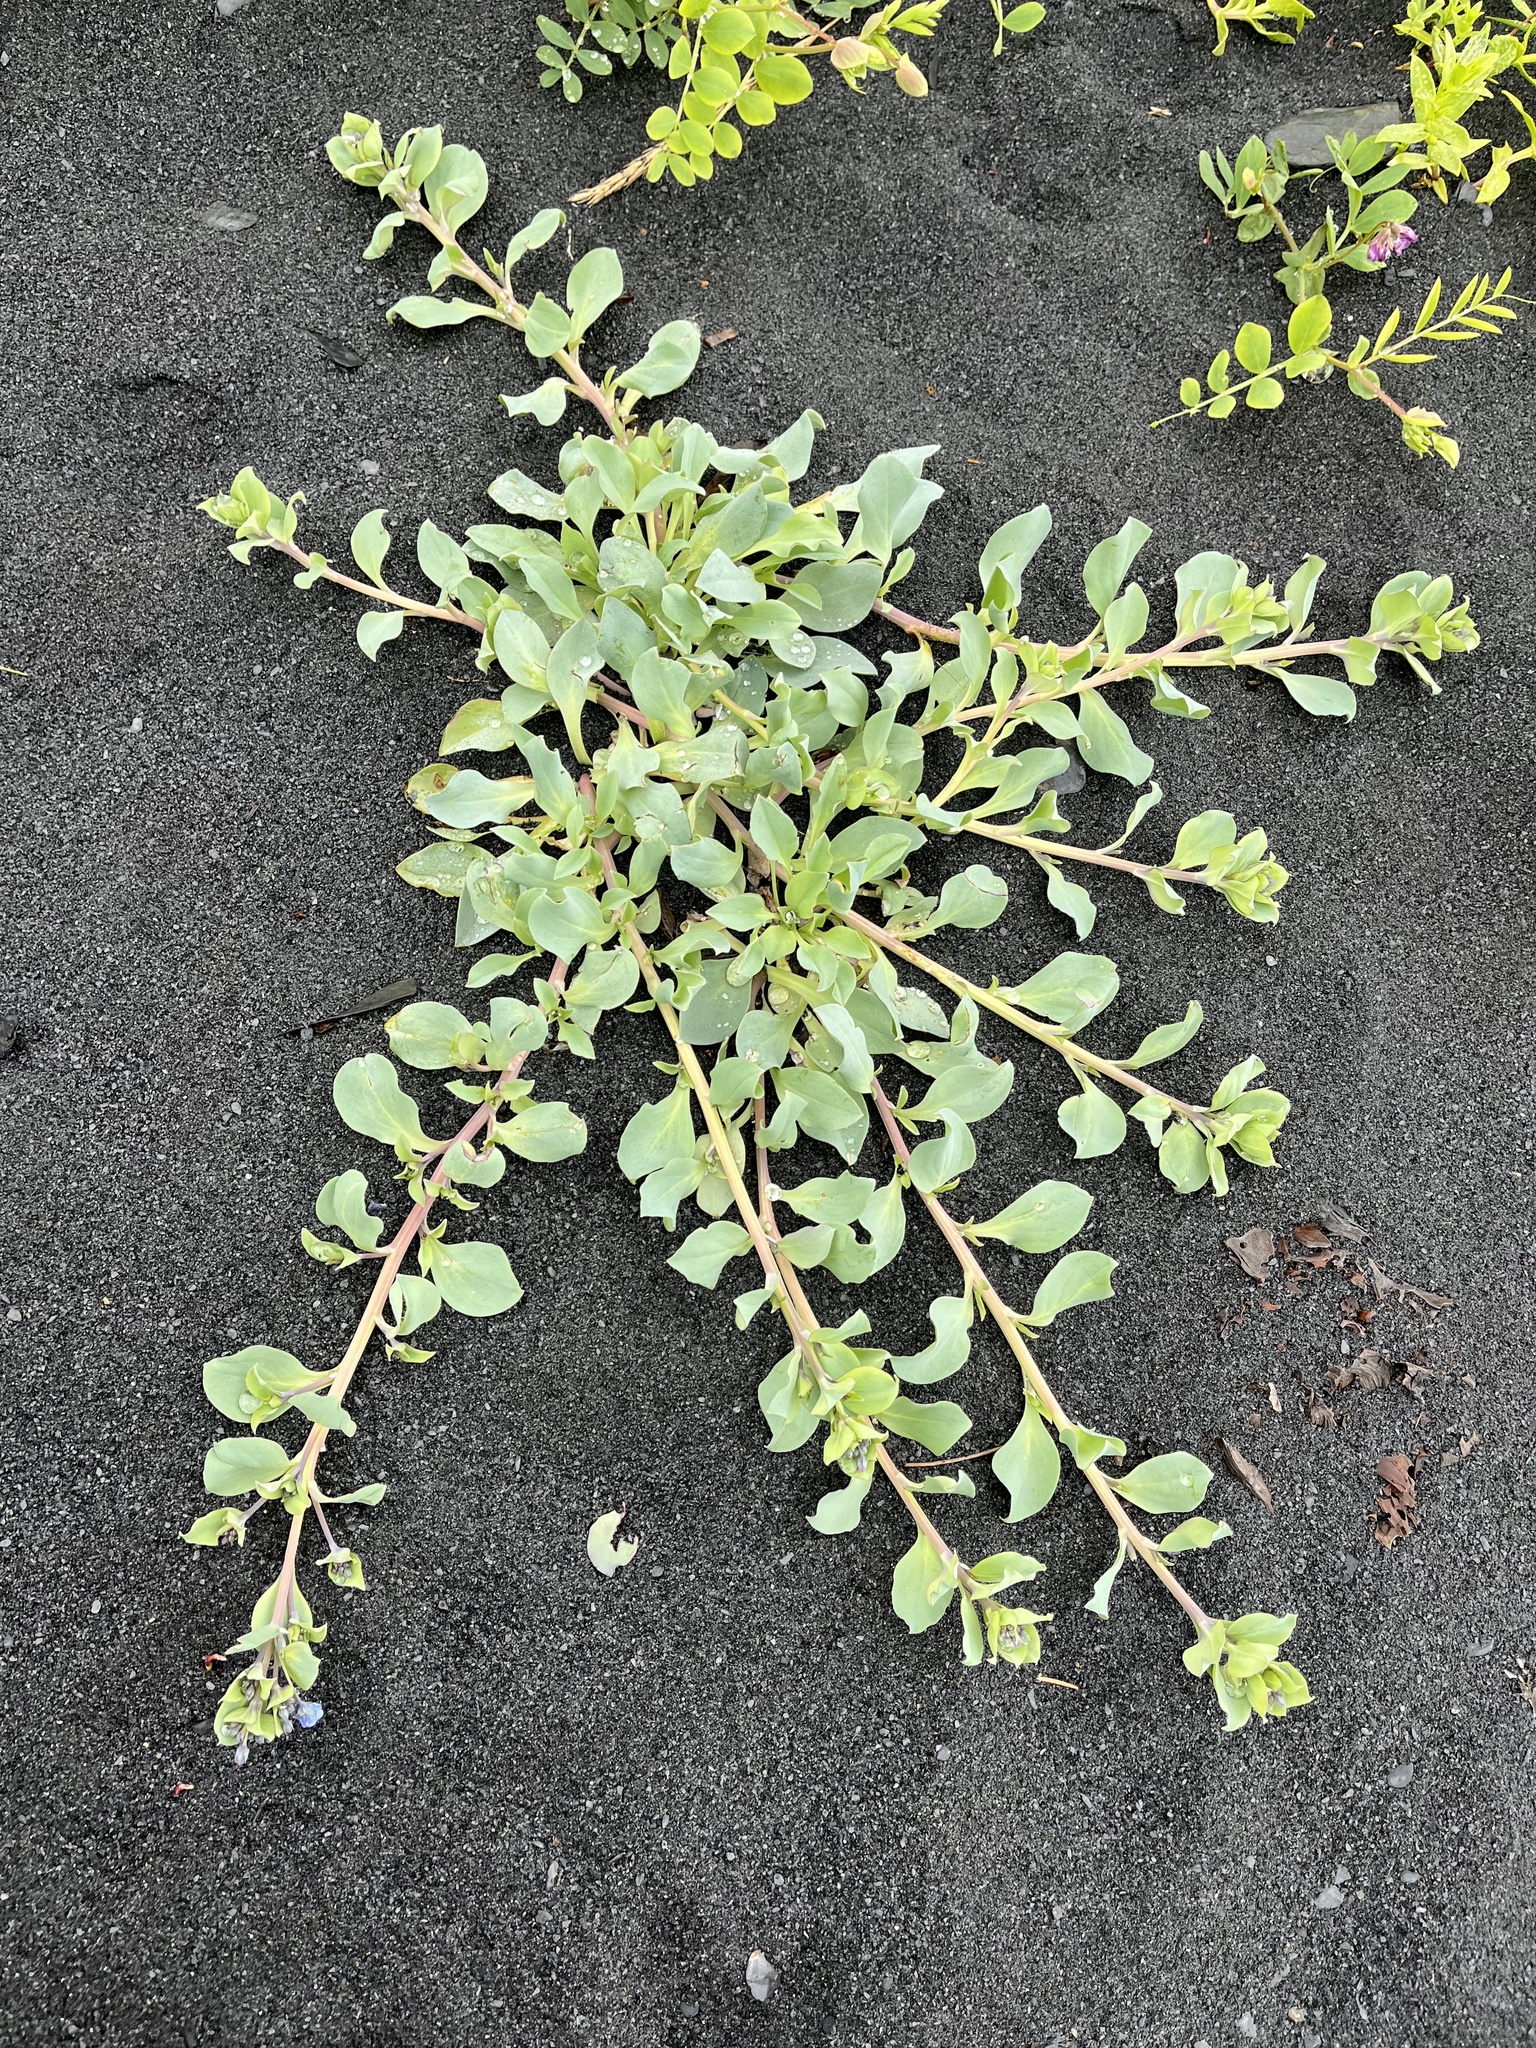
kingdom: Plantae
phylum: Tracheophyta
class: Magnoliopsida
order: Boraginales
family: Boraginaceae
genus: Mertensia
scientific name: Mertensia maritima
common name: Oysterplant
